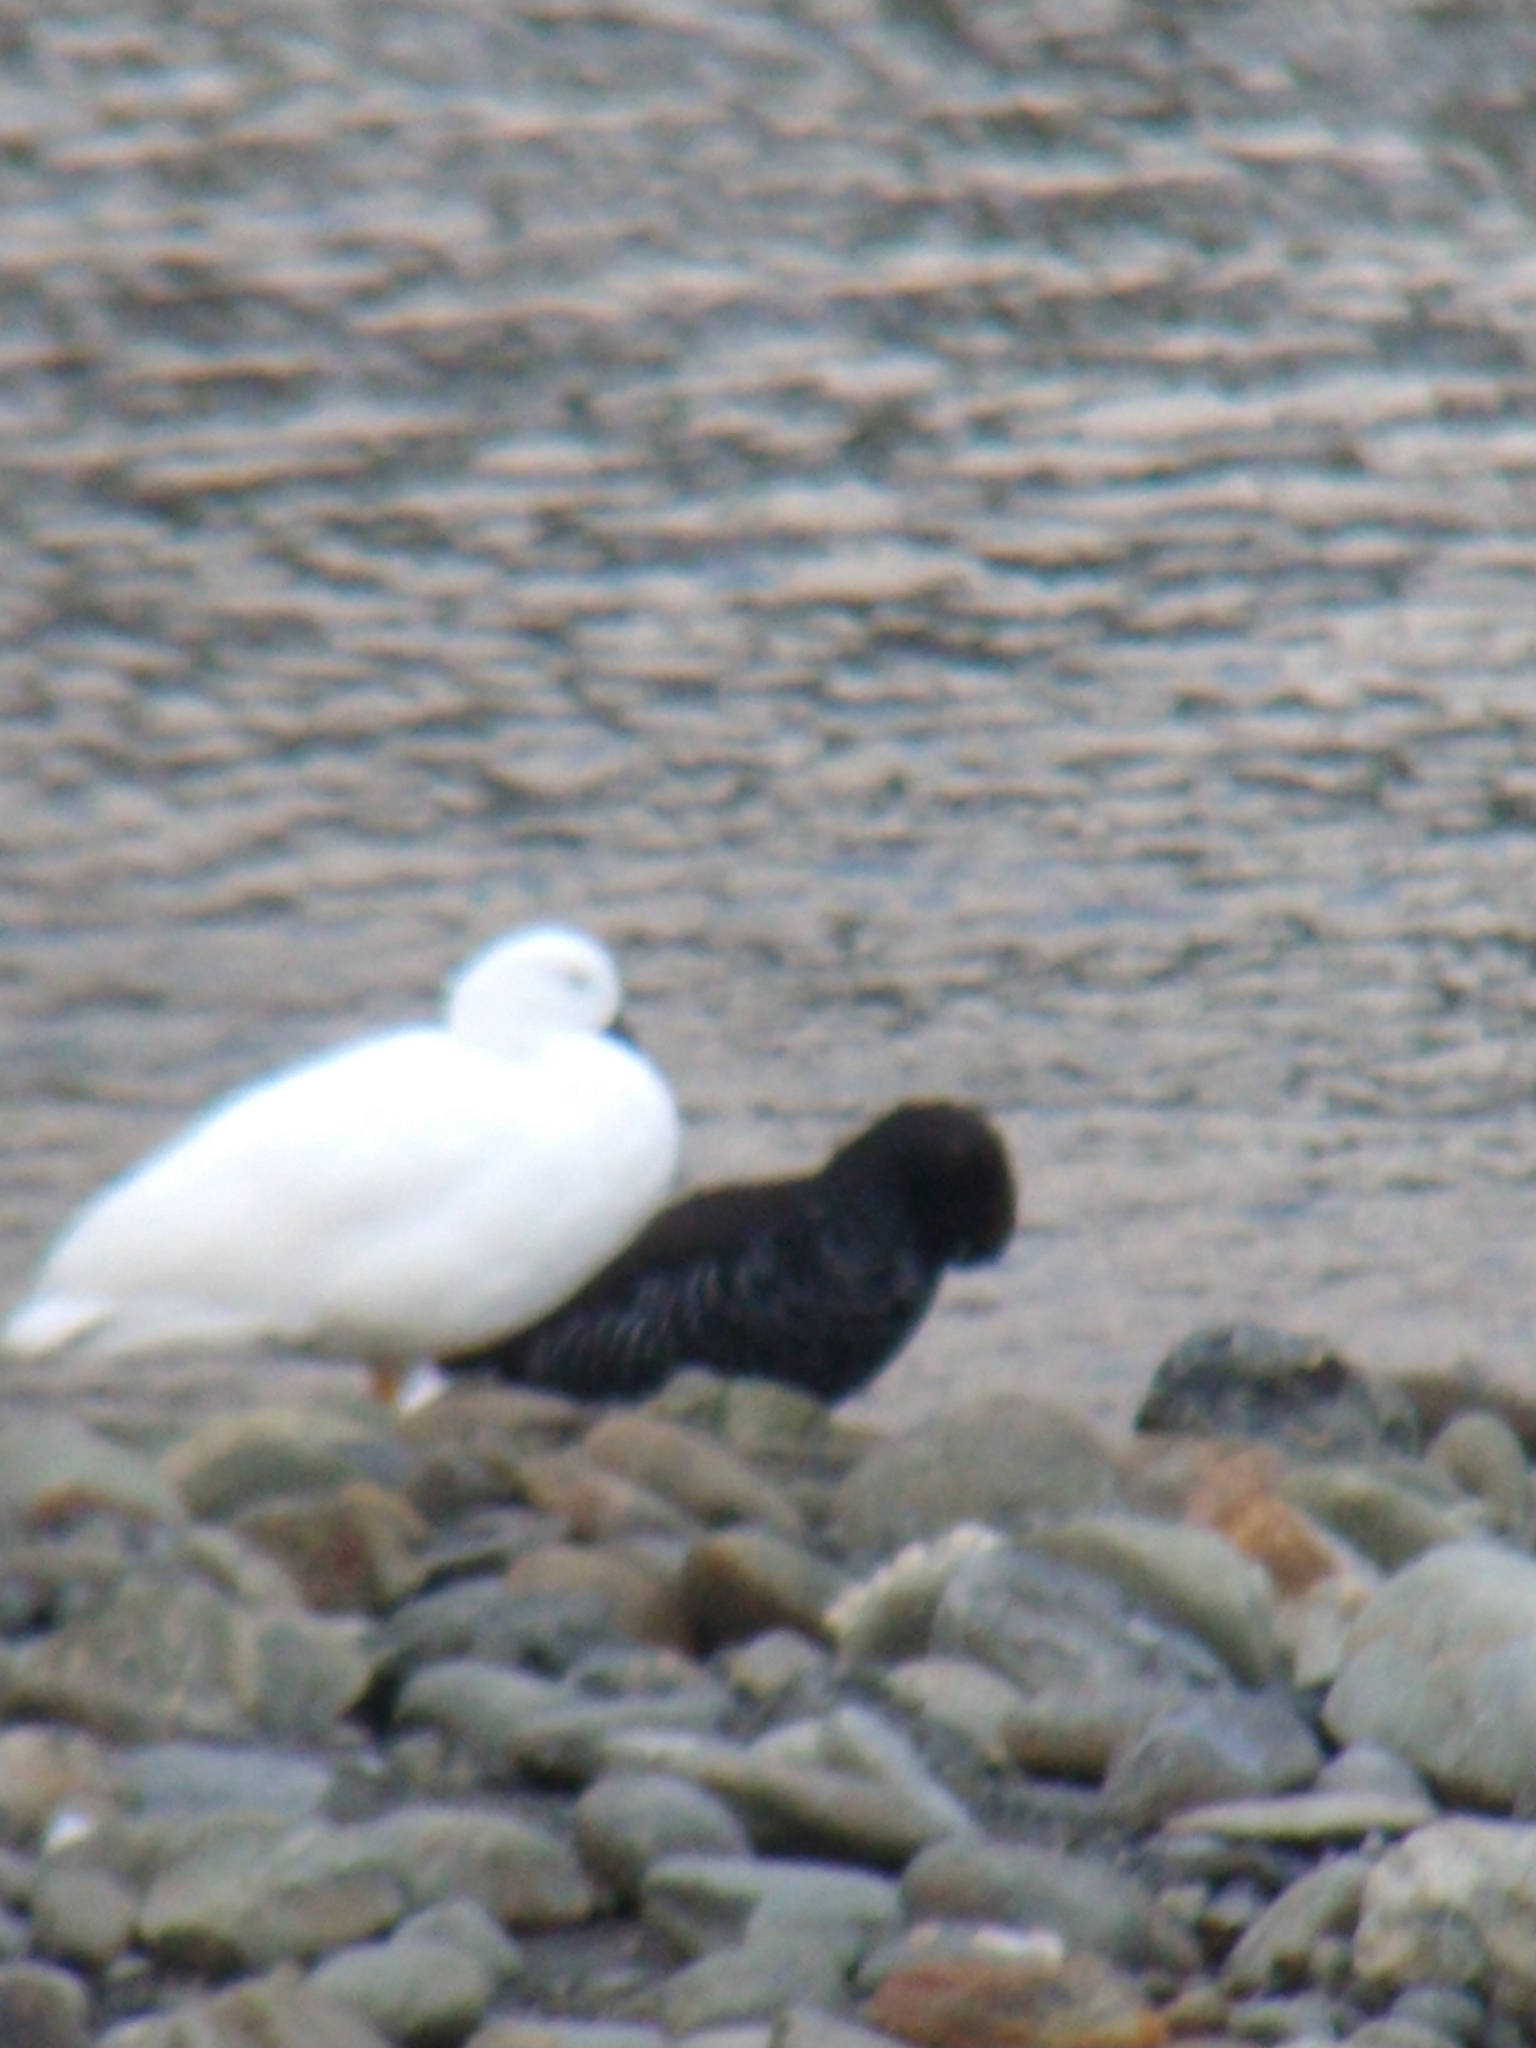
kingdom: Animalia
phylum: Chordata
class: Aves
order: Anseriformes
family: Anatidae
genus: Chloephaga
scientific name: Chloephaga hybrida
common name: Kelp goose
